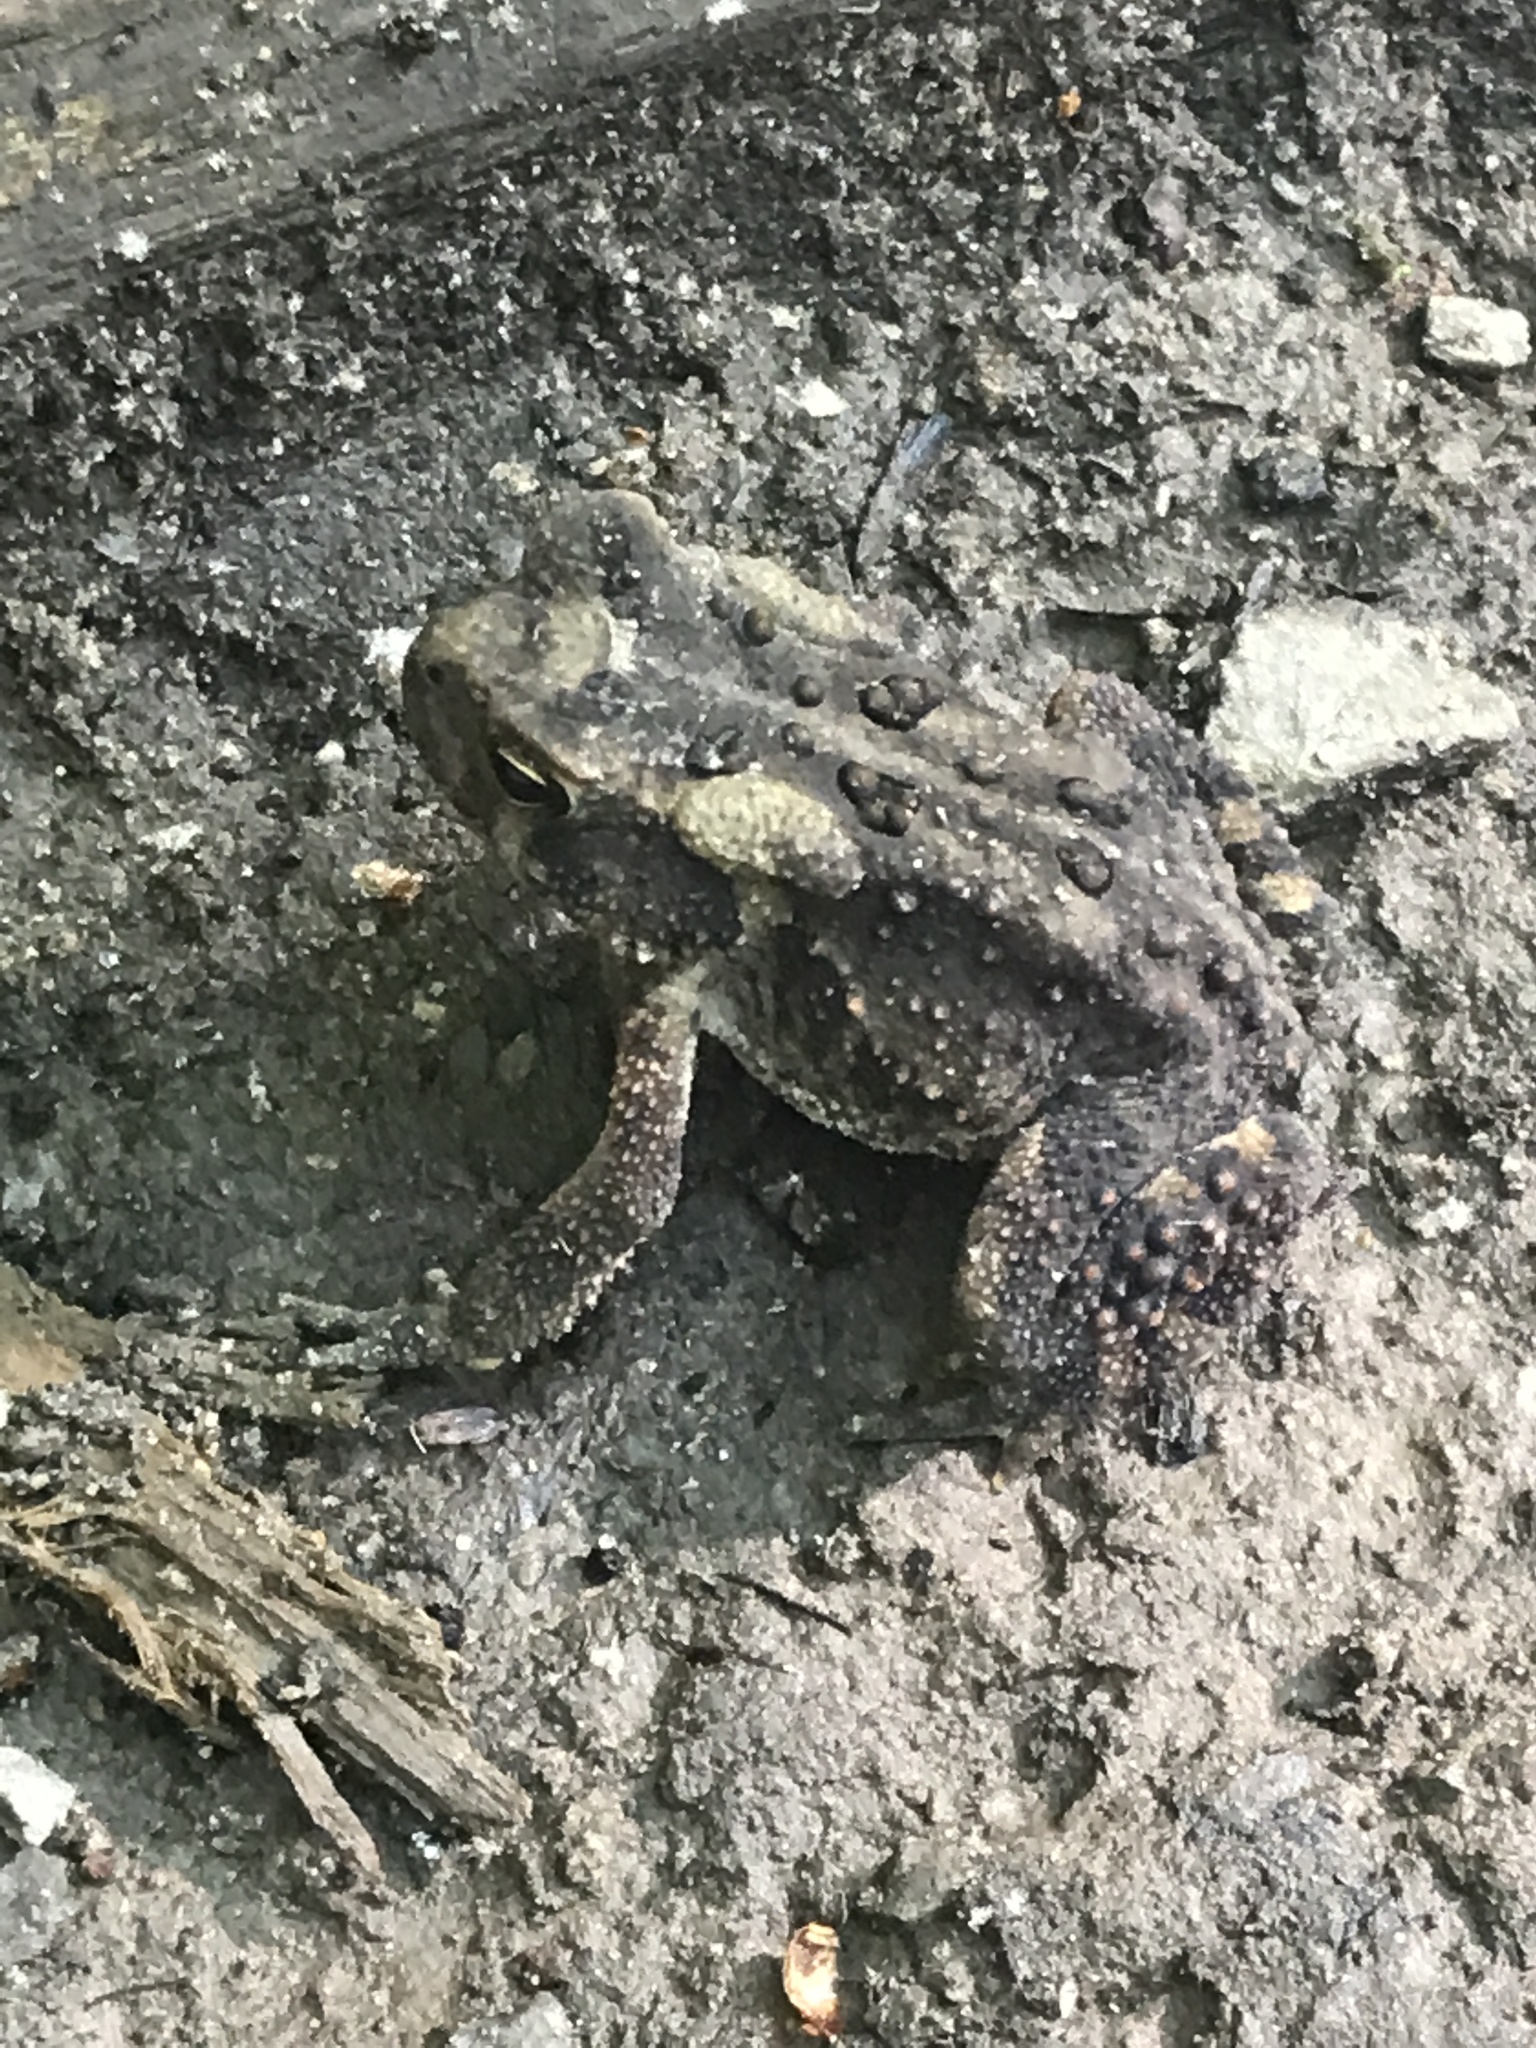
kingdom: Animalia
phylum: Chordata
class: Amphibia
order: Anura
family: Bufonidae
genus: Anaxyrus
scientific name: Anaxyrus americanus
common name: American toad
